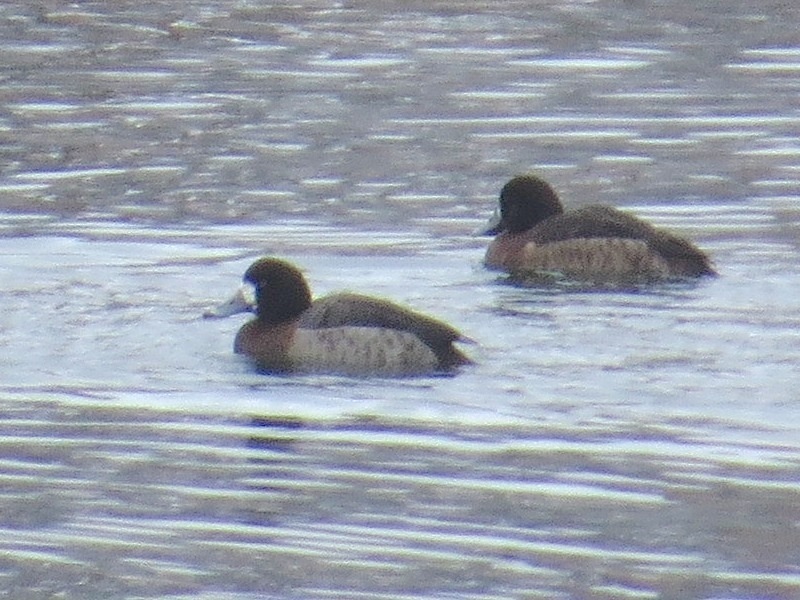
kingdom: Animalia
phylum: Chordata
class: Aves
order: Anseriformes
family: Anatidae
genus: Aythya
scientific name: Aythya marila
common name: Greater scaup
